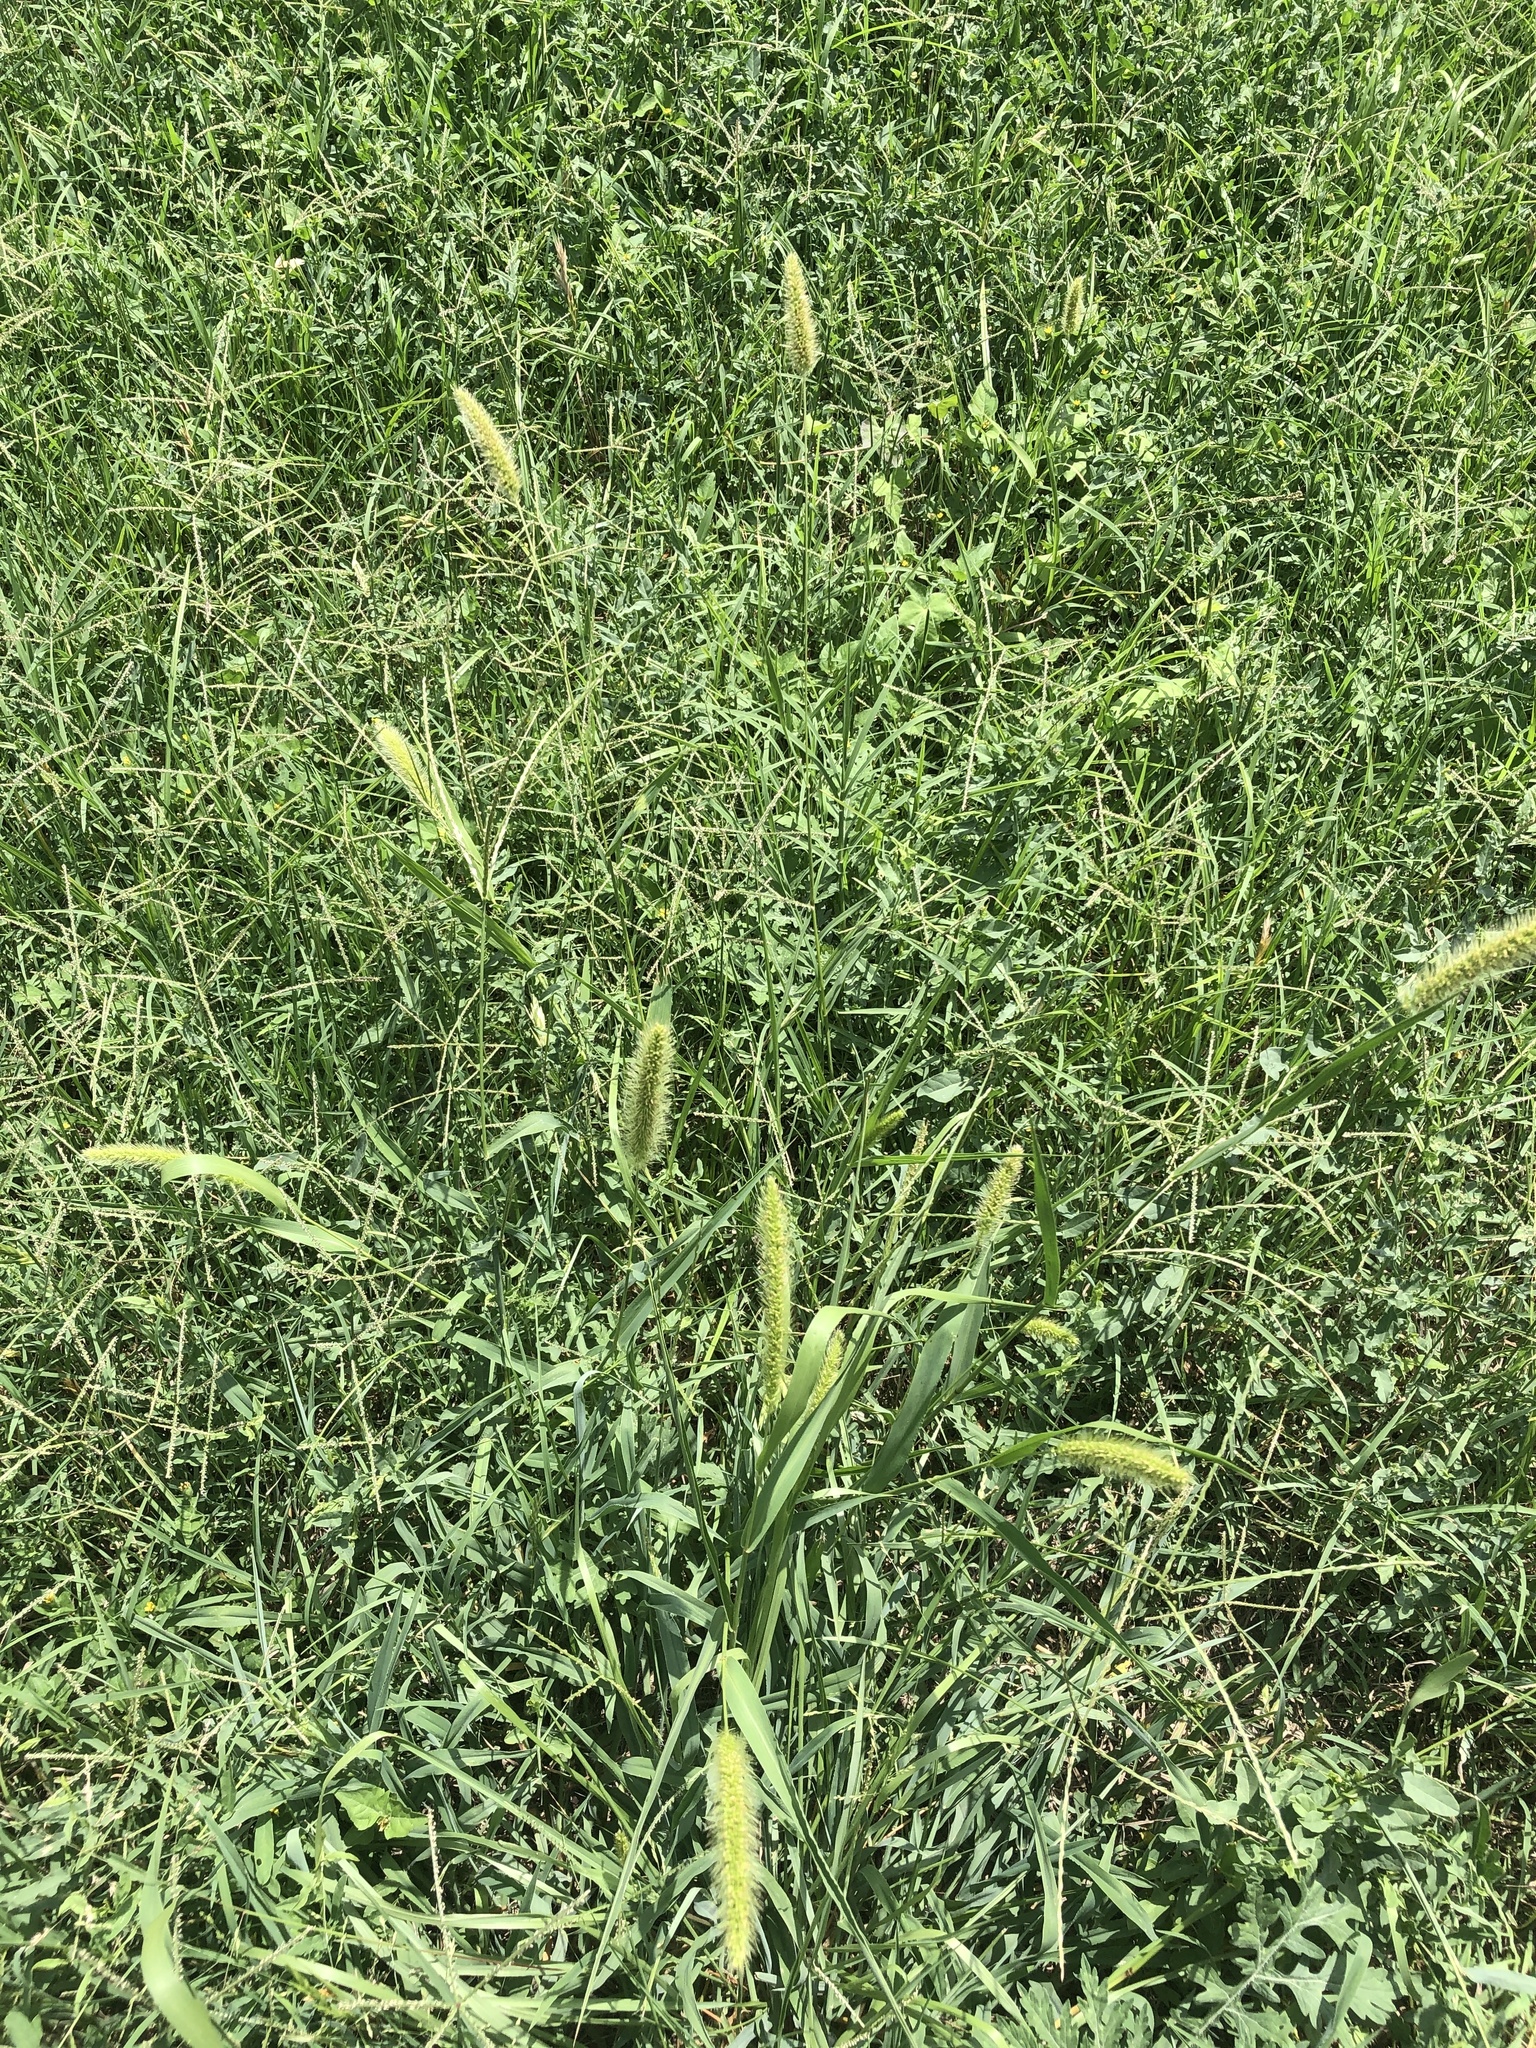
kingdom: Plantae
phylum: Tracheophyta
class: Liliopsida
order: Poales
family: Poaceae
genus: Setaria
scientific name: Setaria viridis
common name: Green bristlegrass
